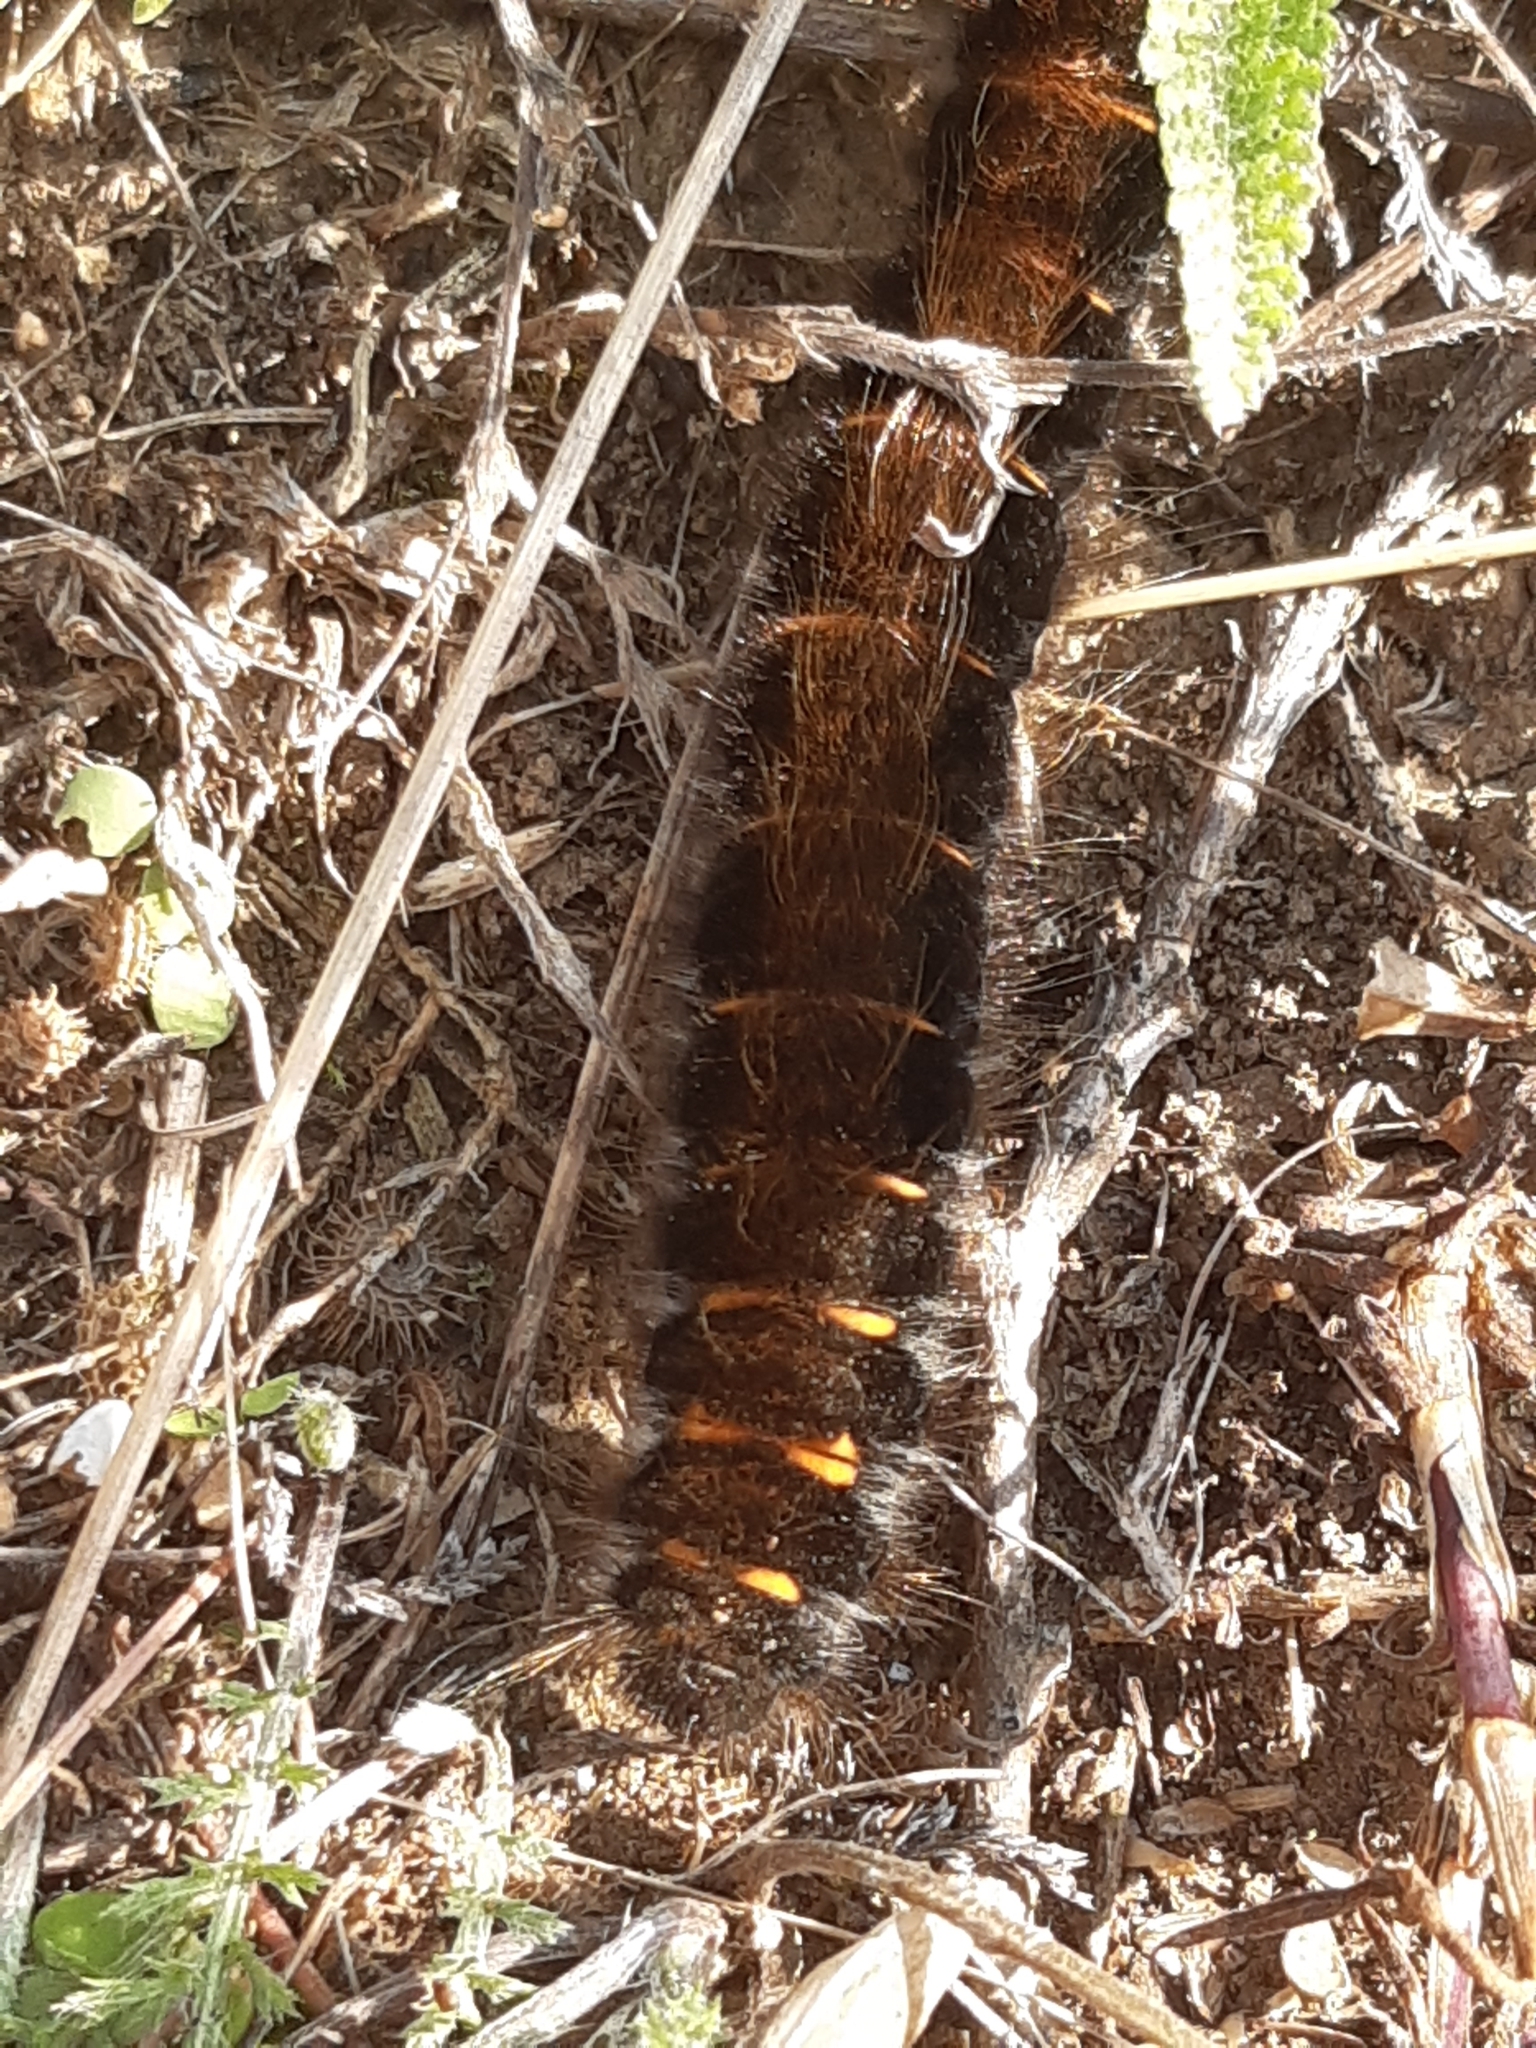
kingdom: Animalia
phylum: Arthropoda
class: Insecta
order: Lepidoptera
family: Lasiocampidae
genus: Macrothylacia
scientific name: Macrothylacia rubi
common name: Fox moth
